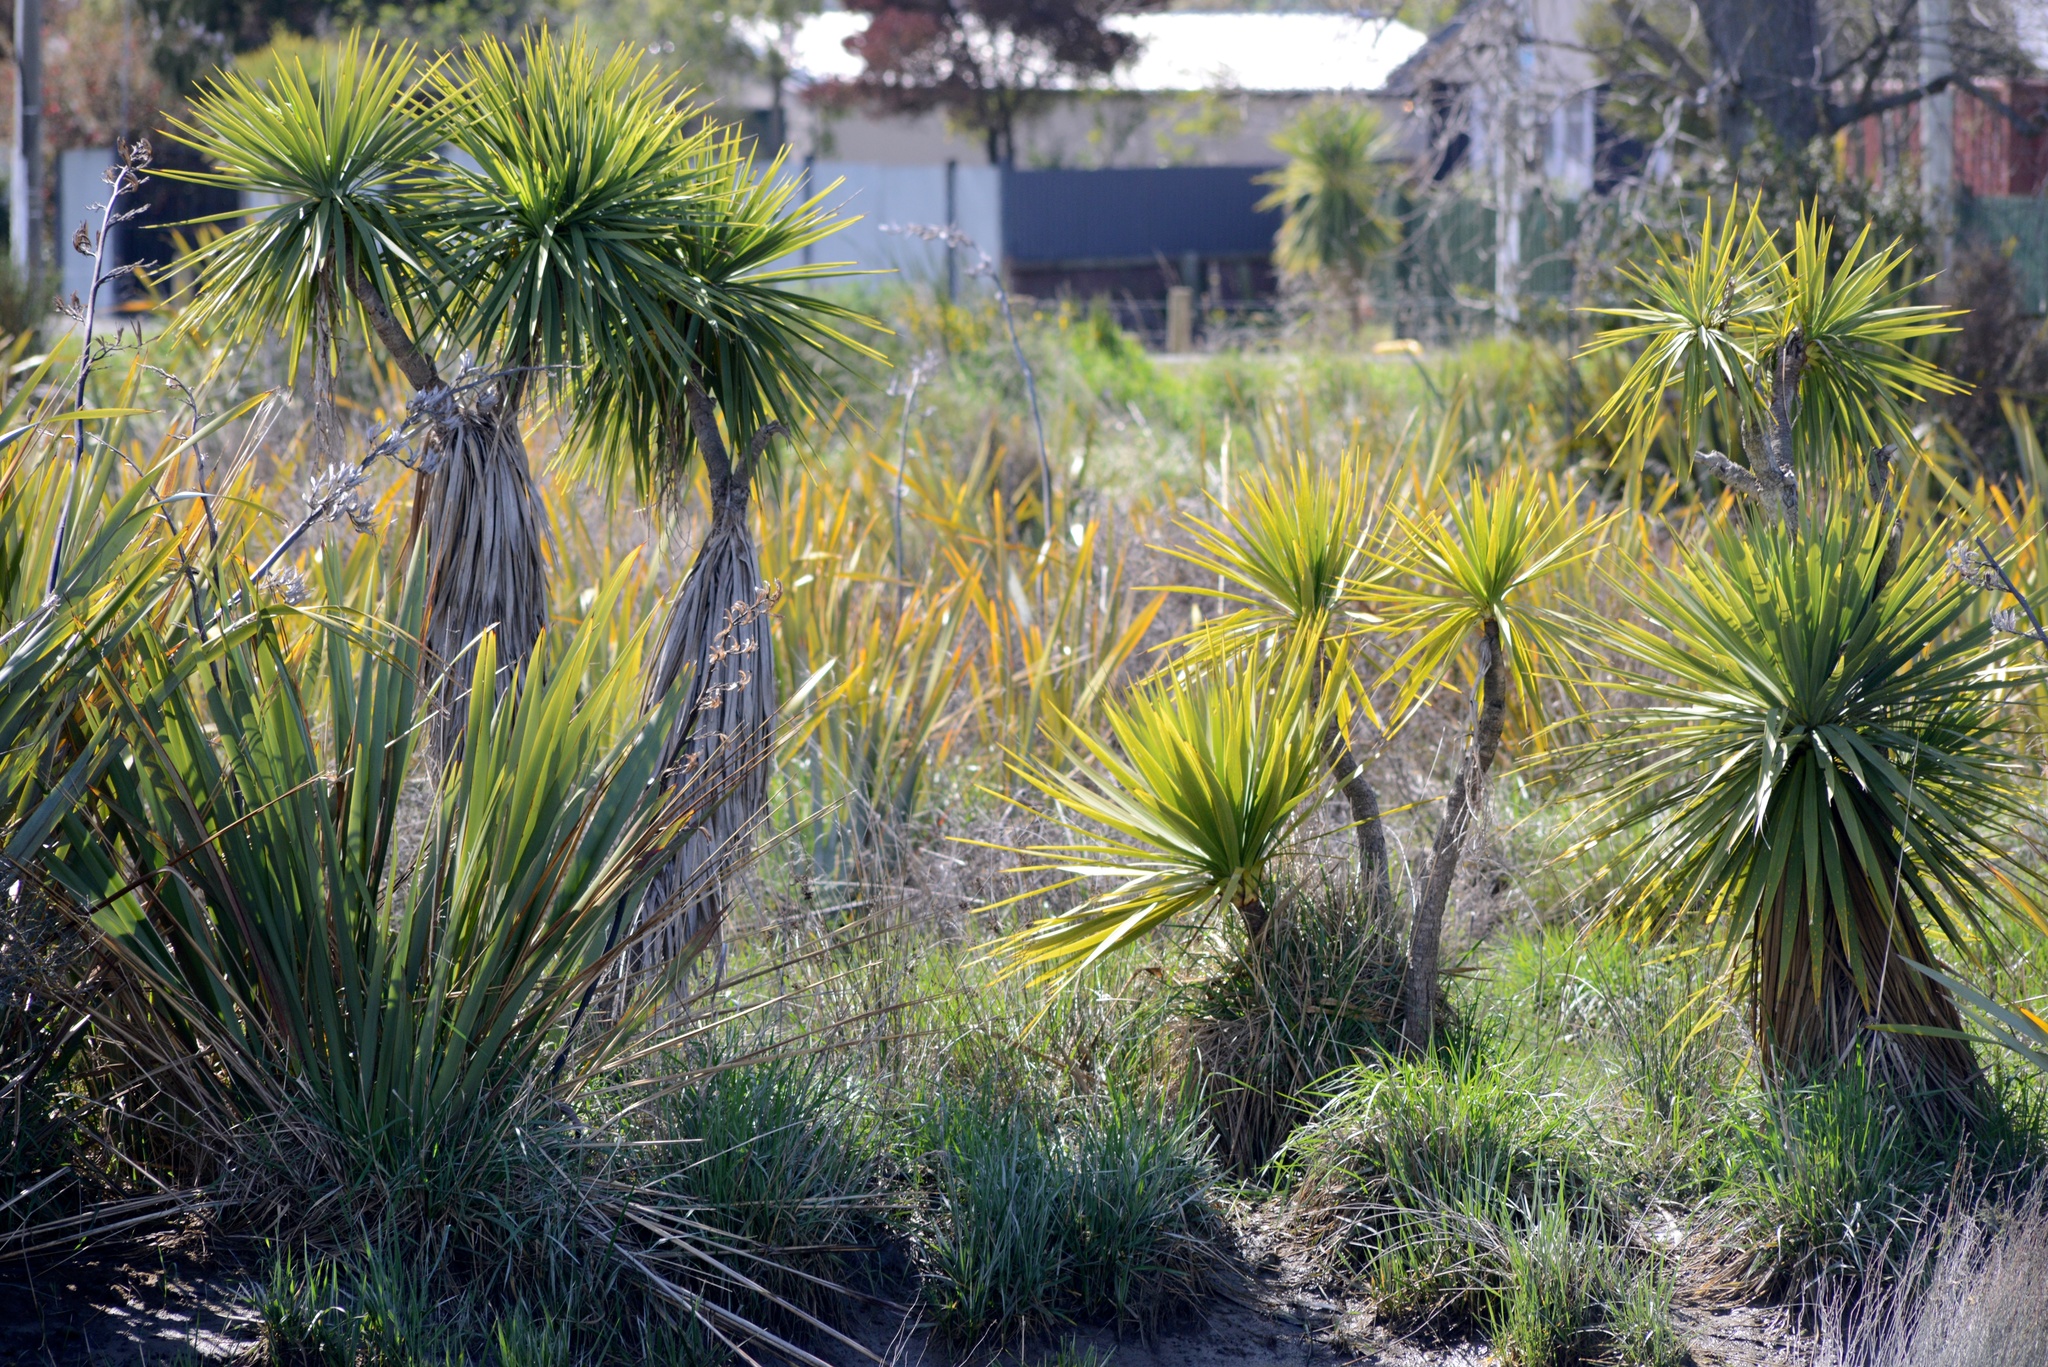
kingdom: Plantae
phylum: Tracheophyta
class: Liliopsida
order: Asparagales
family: Asparagaceae
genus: Cordyline
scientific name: Cordyline australis
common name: Cabbage-palm
